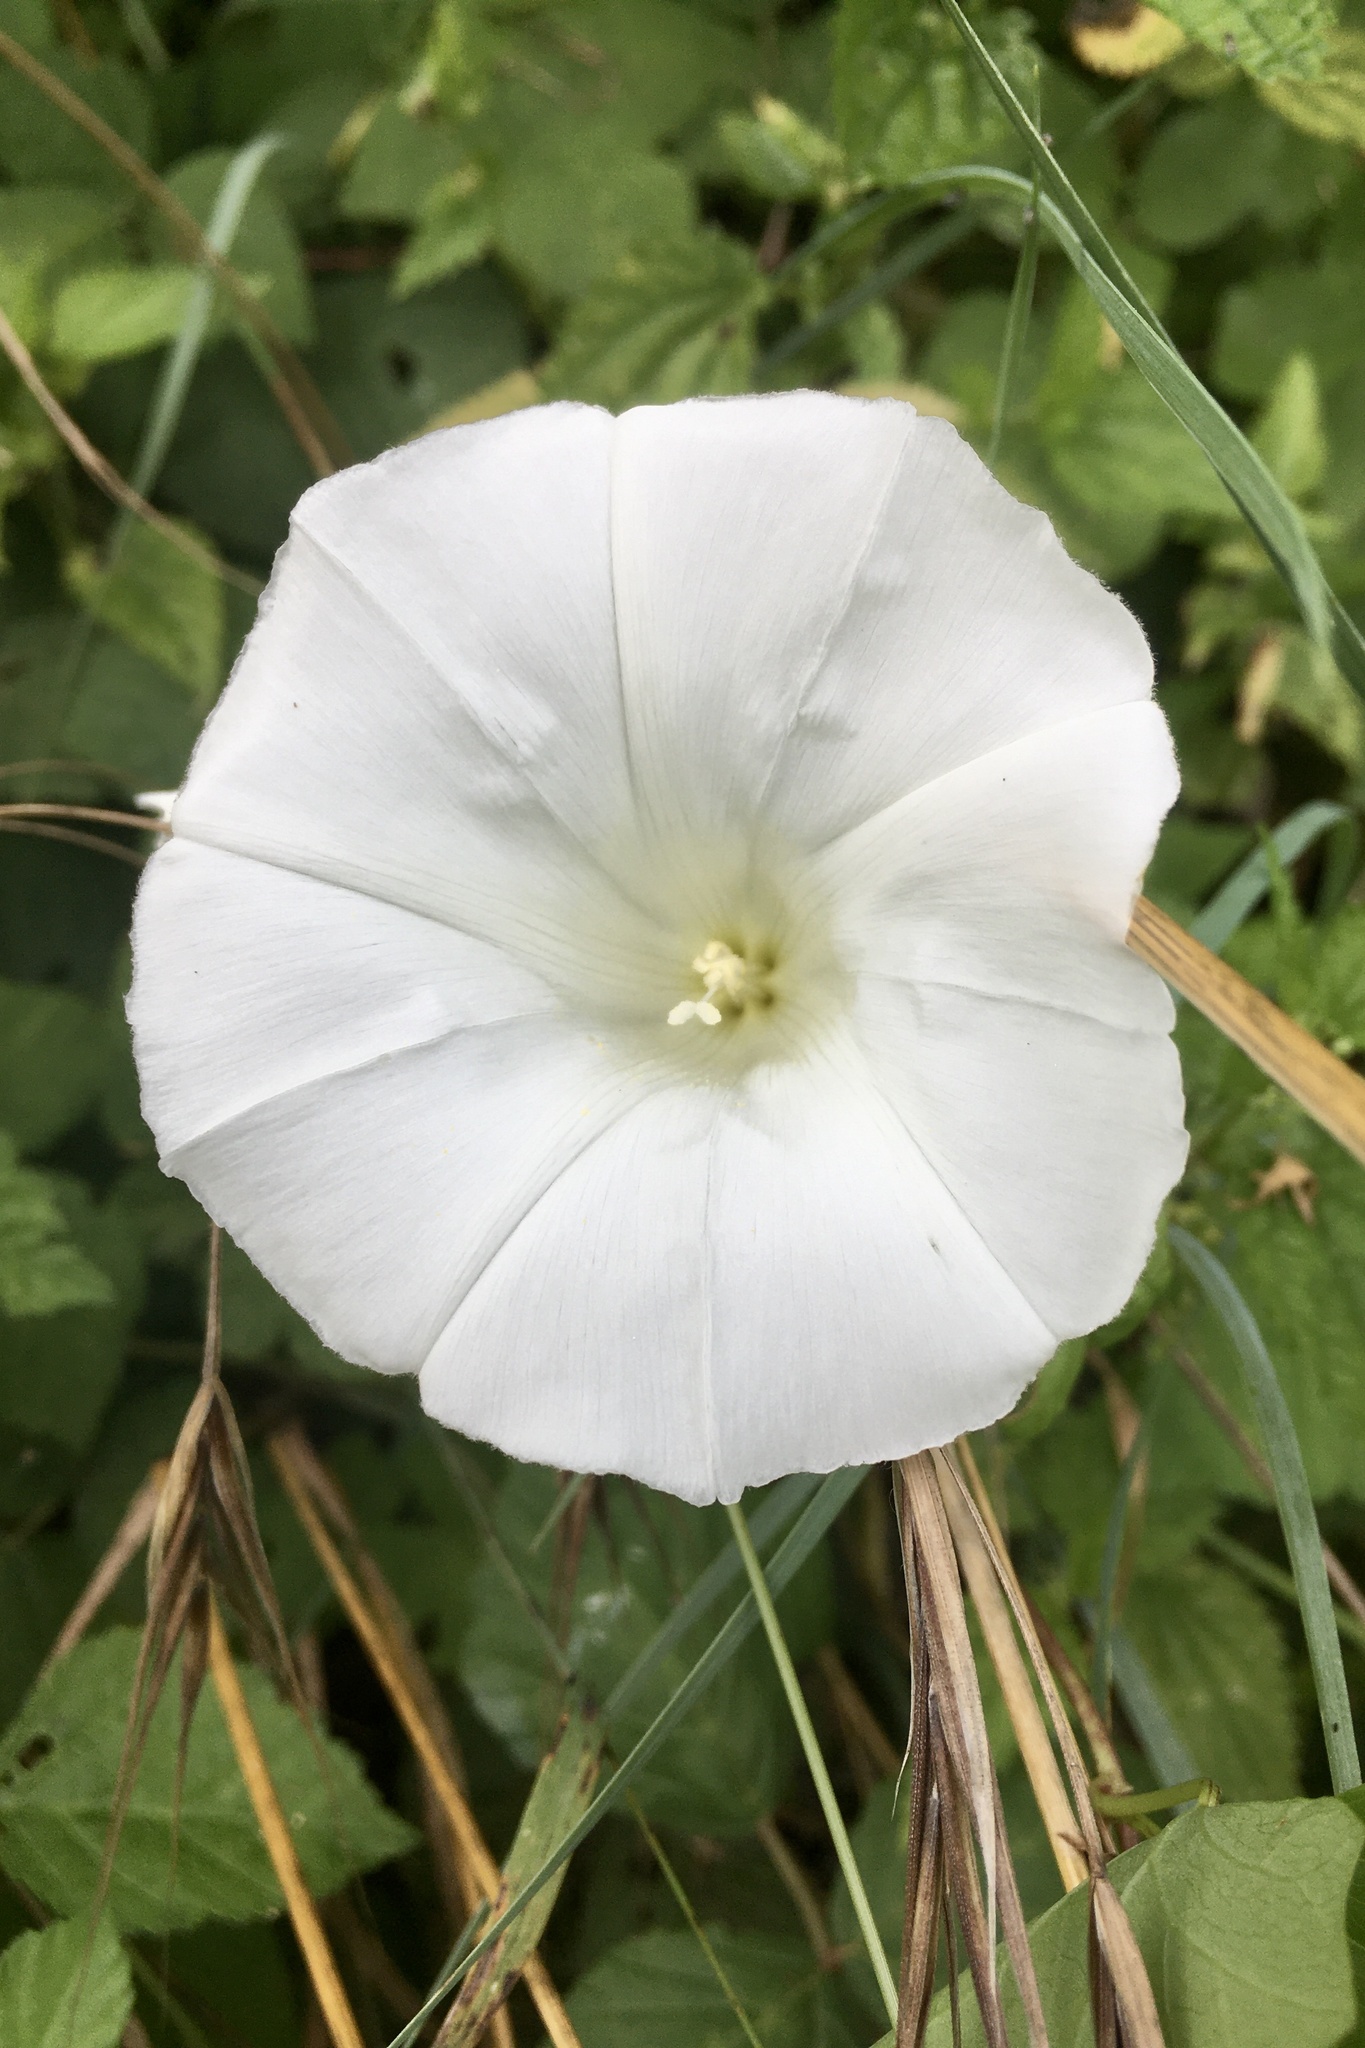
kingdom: Plantae
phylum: Tracheophyta
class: Magnoliopsida
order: Solanales
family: Convolvulaceae
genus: Calystegia
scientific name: Calystegia
